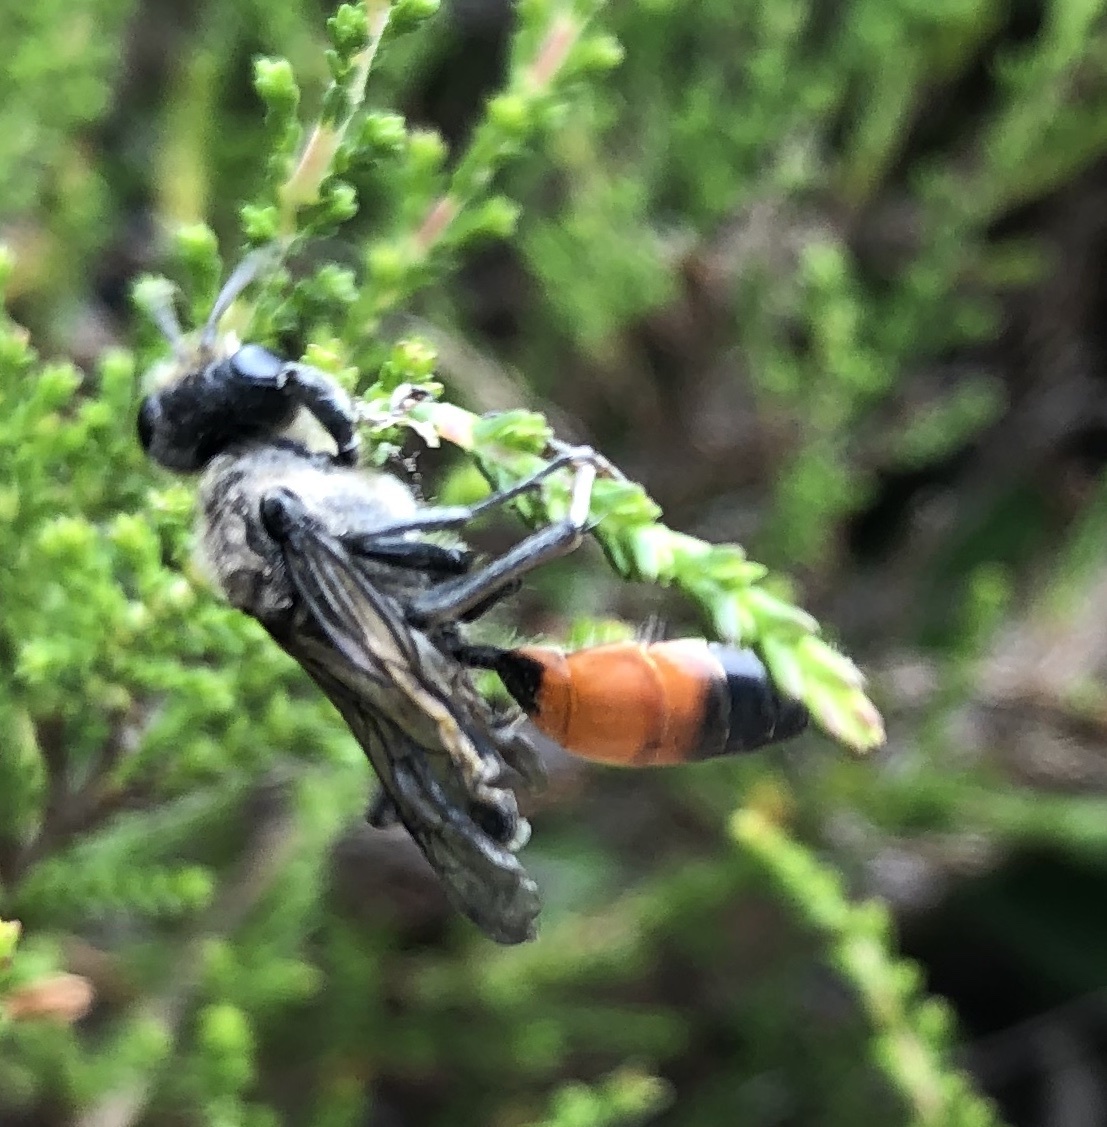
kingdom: Animalia
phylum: Arthropoda
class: Insecta
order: Hymenoptera
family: Sphecidae
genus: Sphex
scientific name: Sphex funerarius
